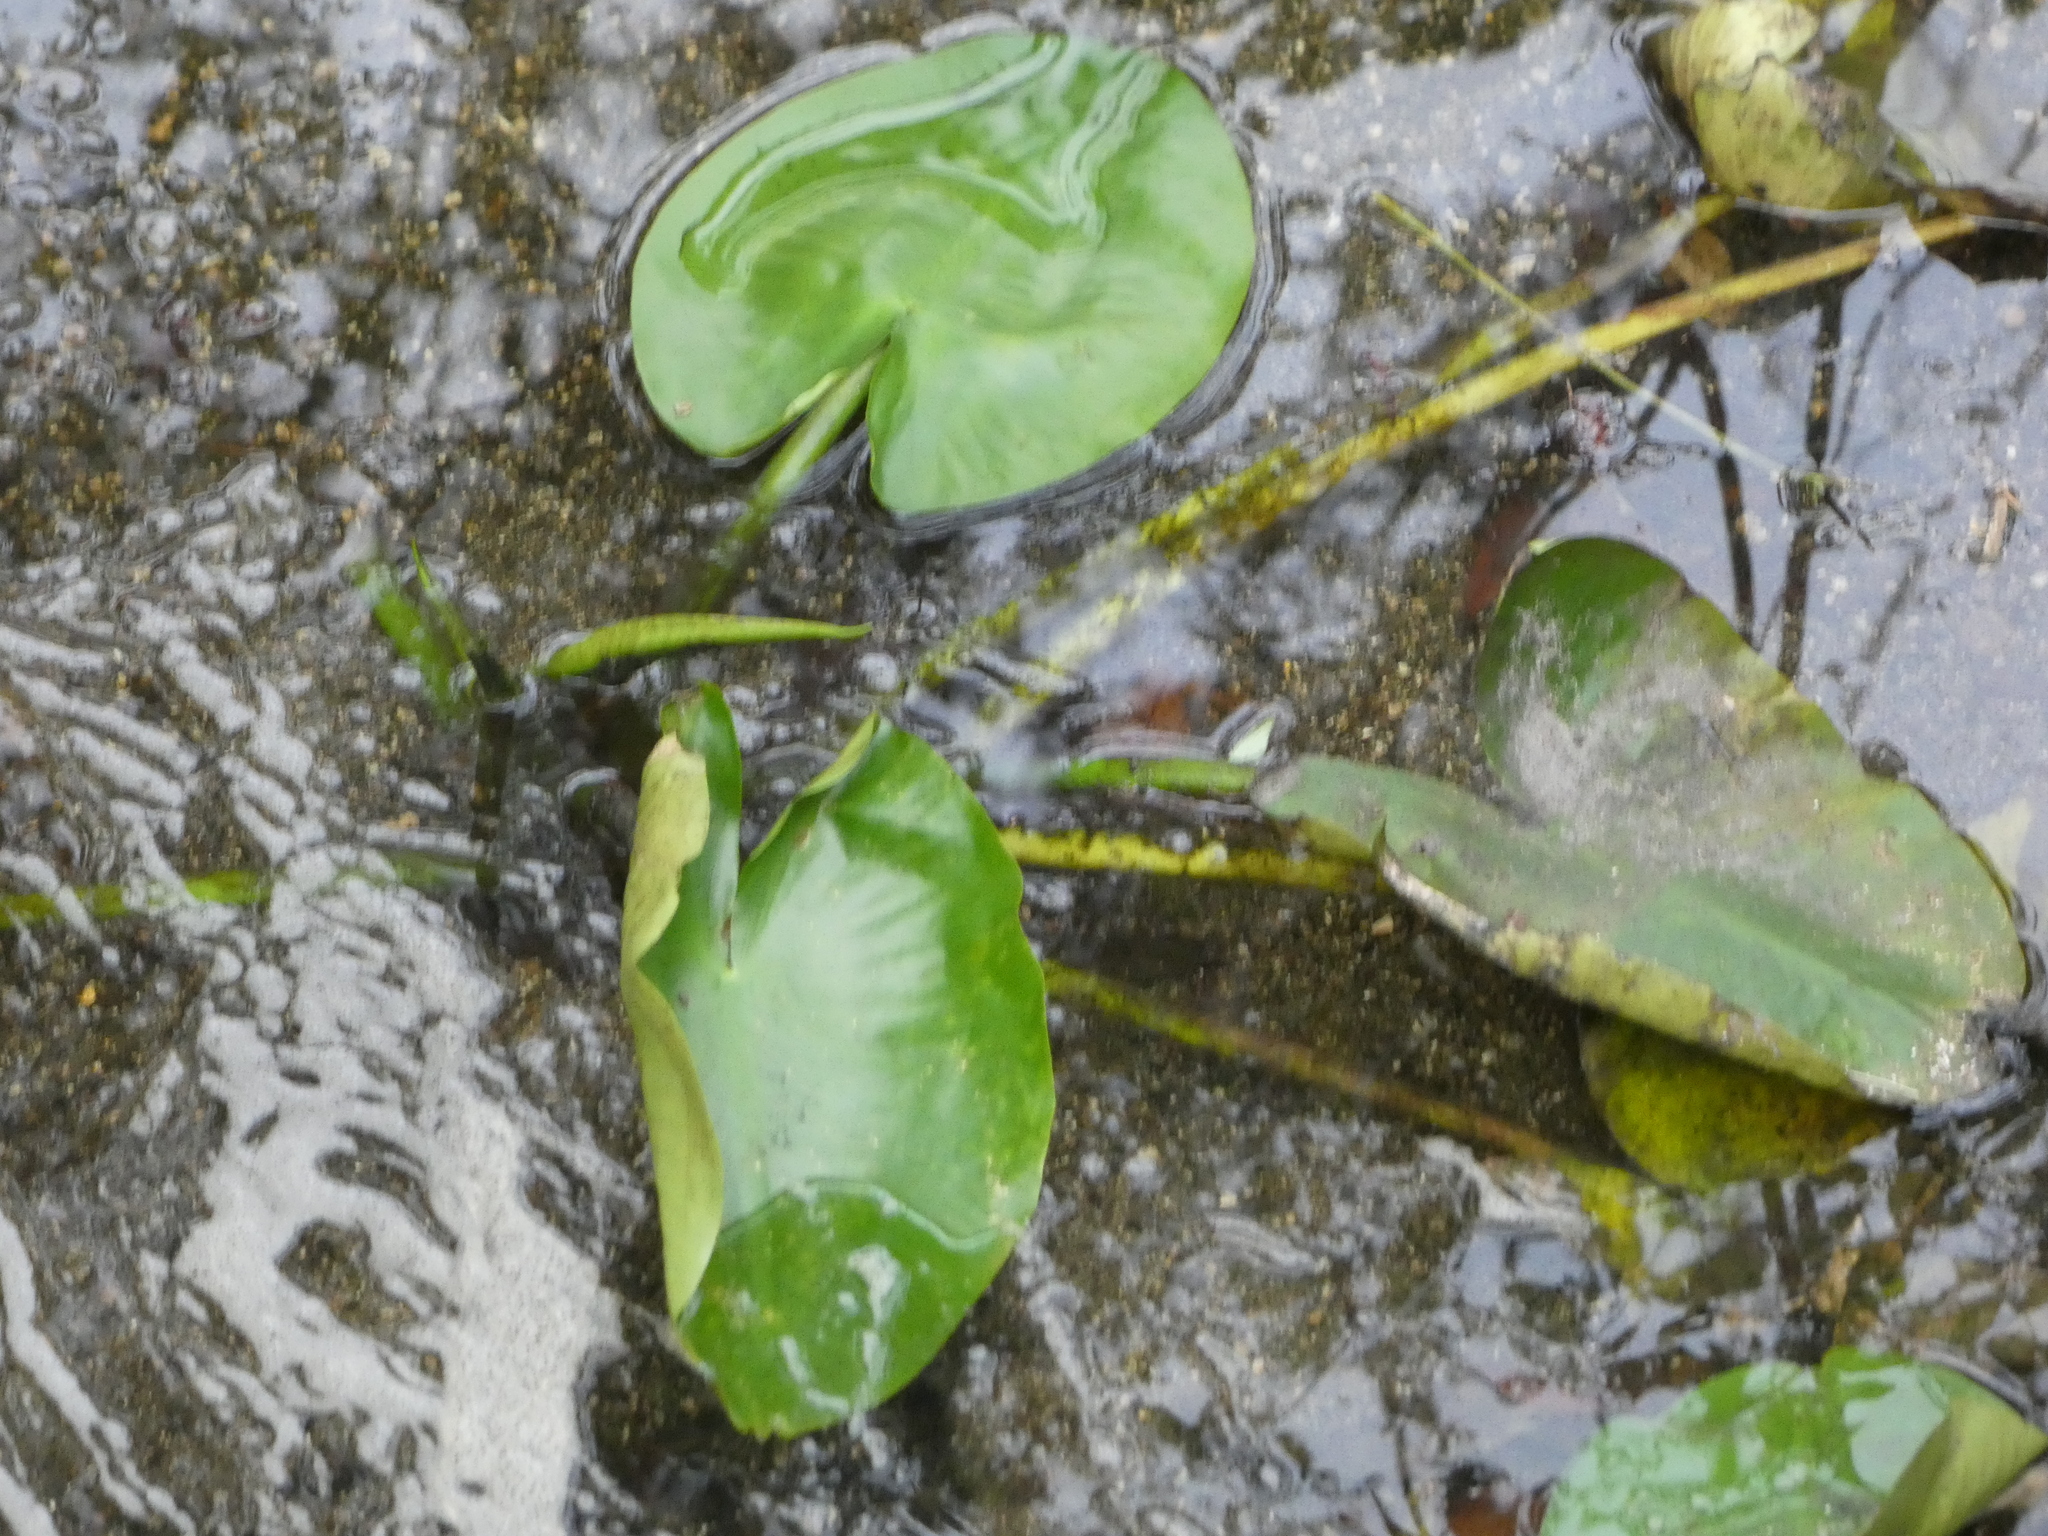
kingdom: Plantae
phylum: Tracheophyta
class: Magnoliopsida
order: Nymphaeales
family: Nymphaeaceae
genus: Nuphar
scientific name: Nuphar advena
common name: Spatter-dock
